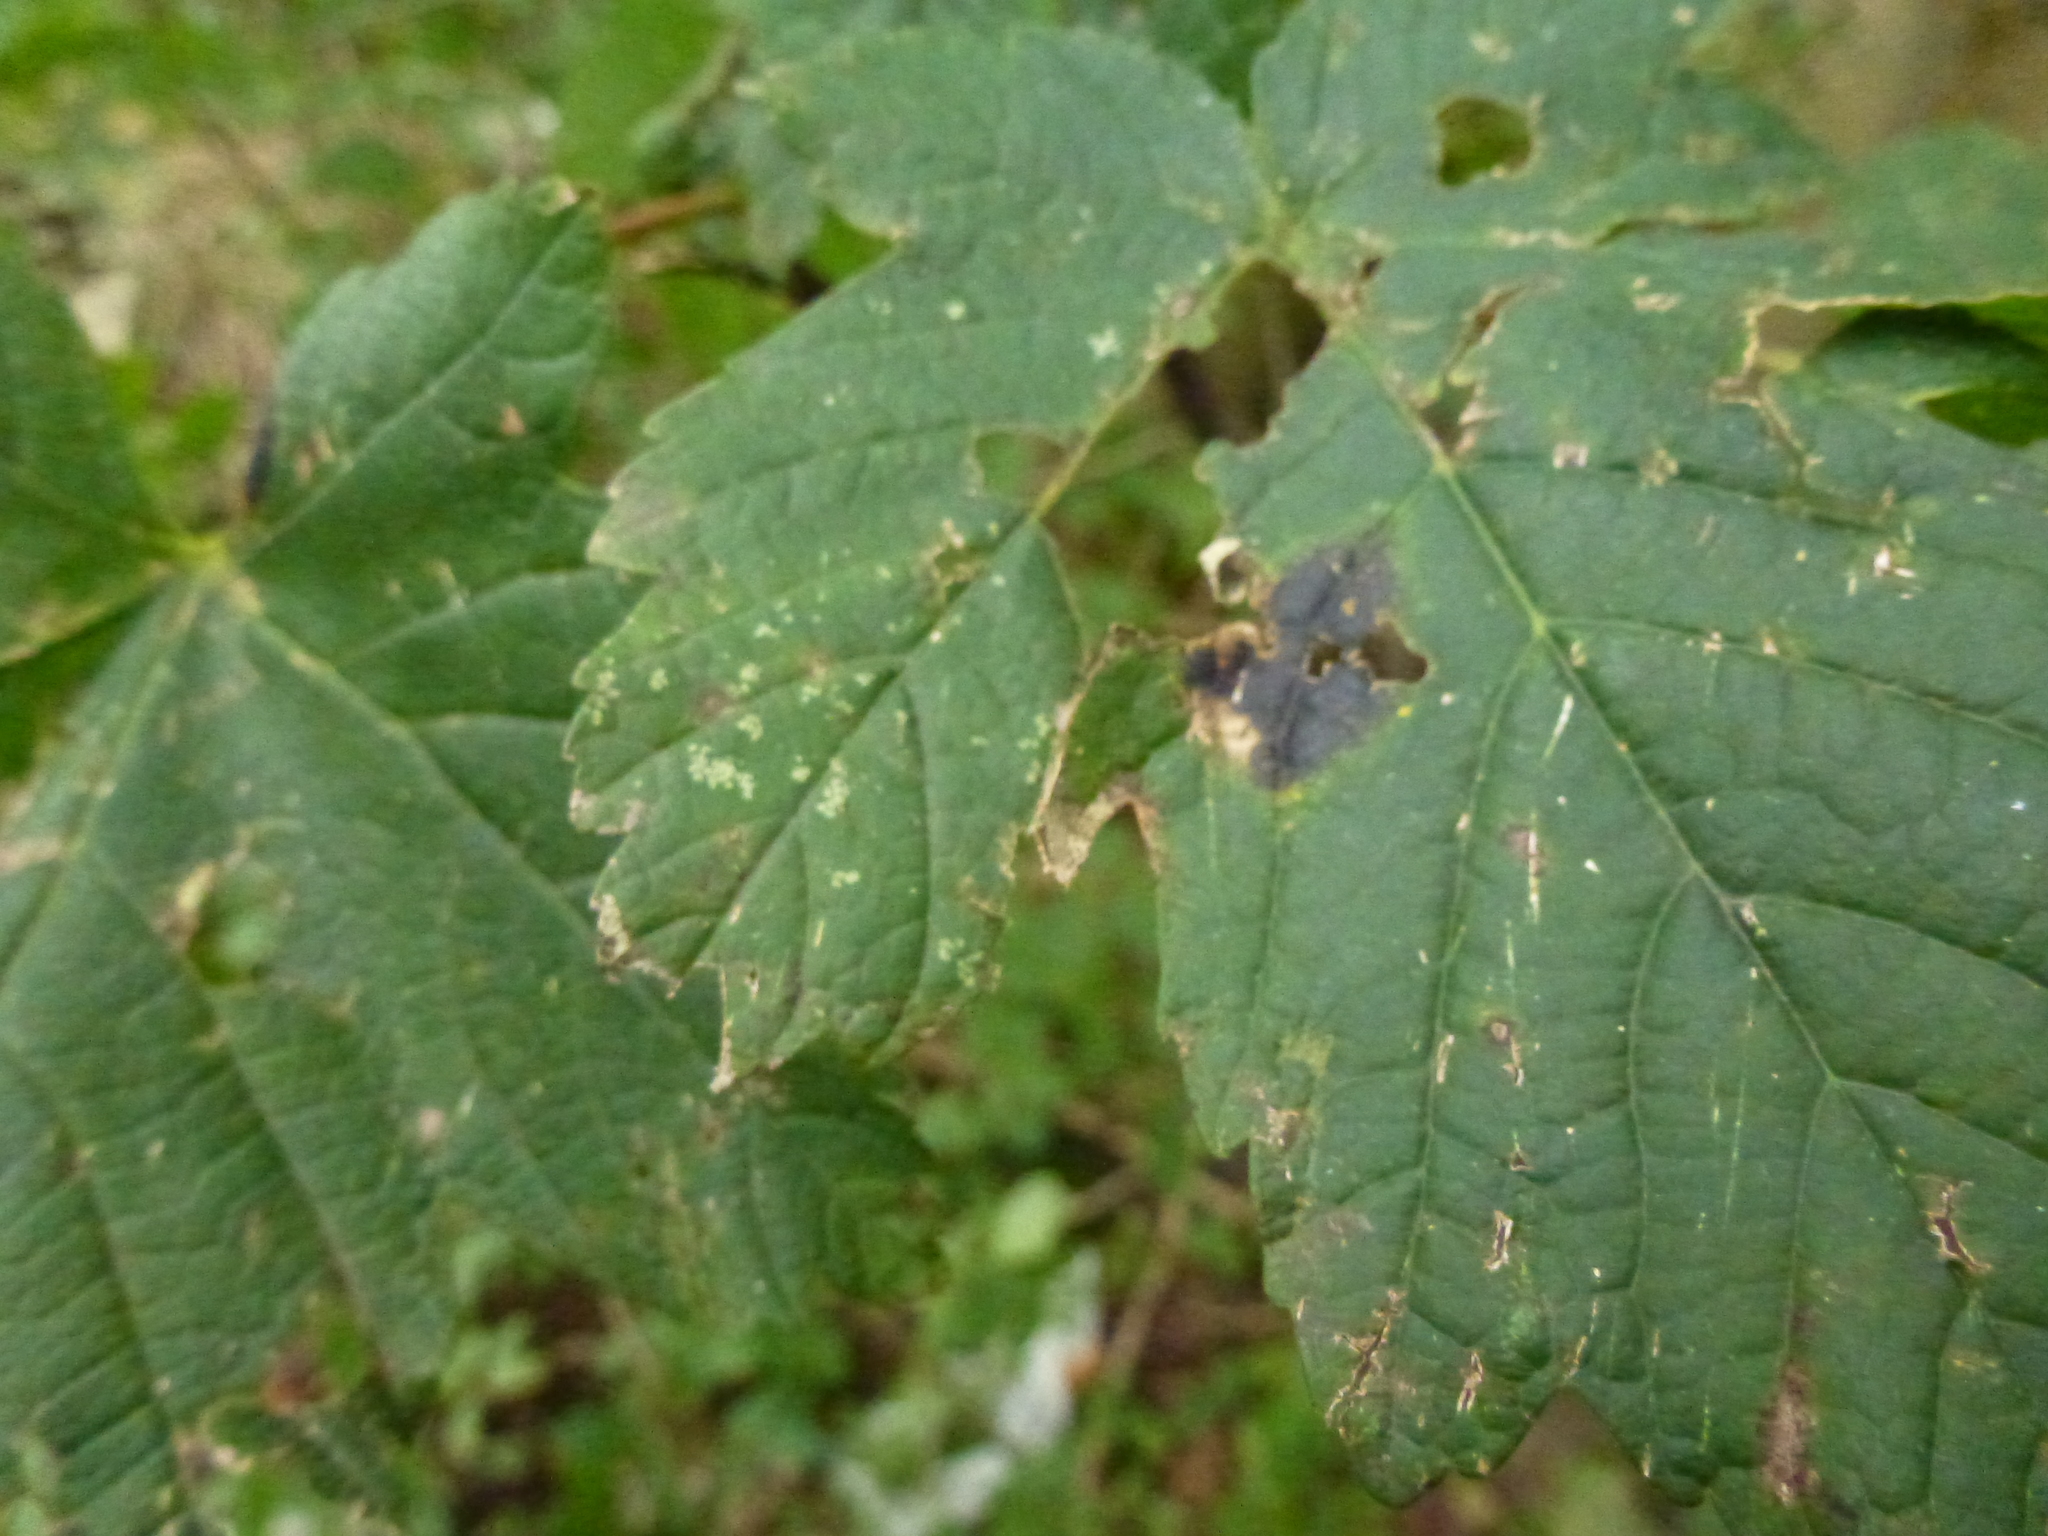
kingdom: Fungi
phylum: Ascomycota
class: Leotiomycetes
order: Rhytismatales
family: Rhytismataceae
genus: Rhytisma
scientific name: Rhytisma acerinum
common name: European tar spot
